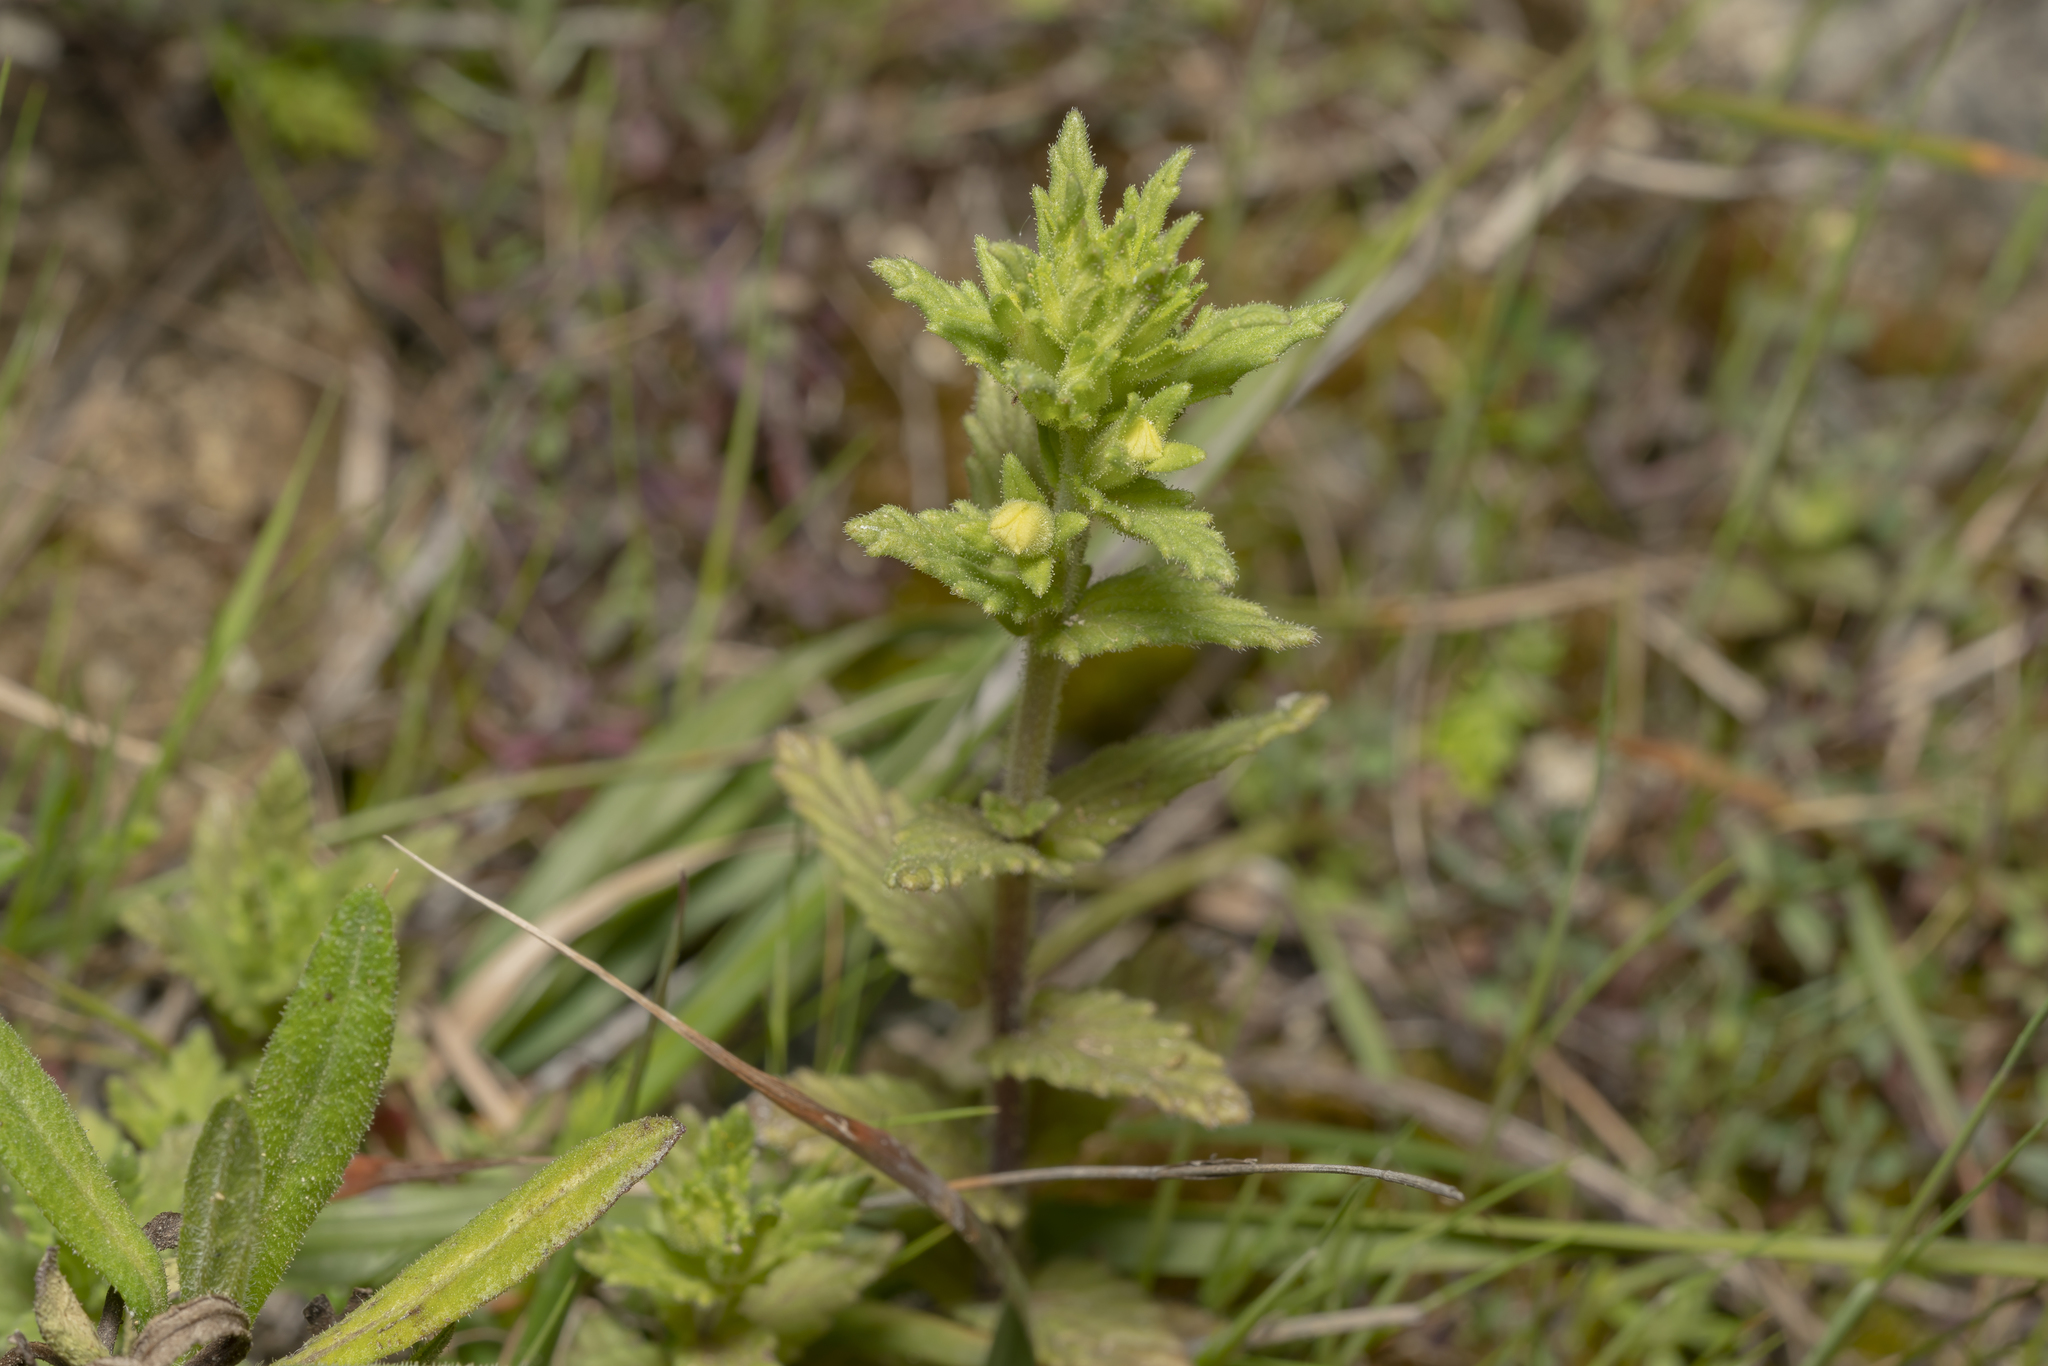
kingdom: Plantae
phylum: Tracheophyta
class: Magnoliopsida
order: Lamiales
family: Orobanchaceae
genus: Bellardia
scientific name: Bellardia viscosa
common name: Sticky parentucellia
